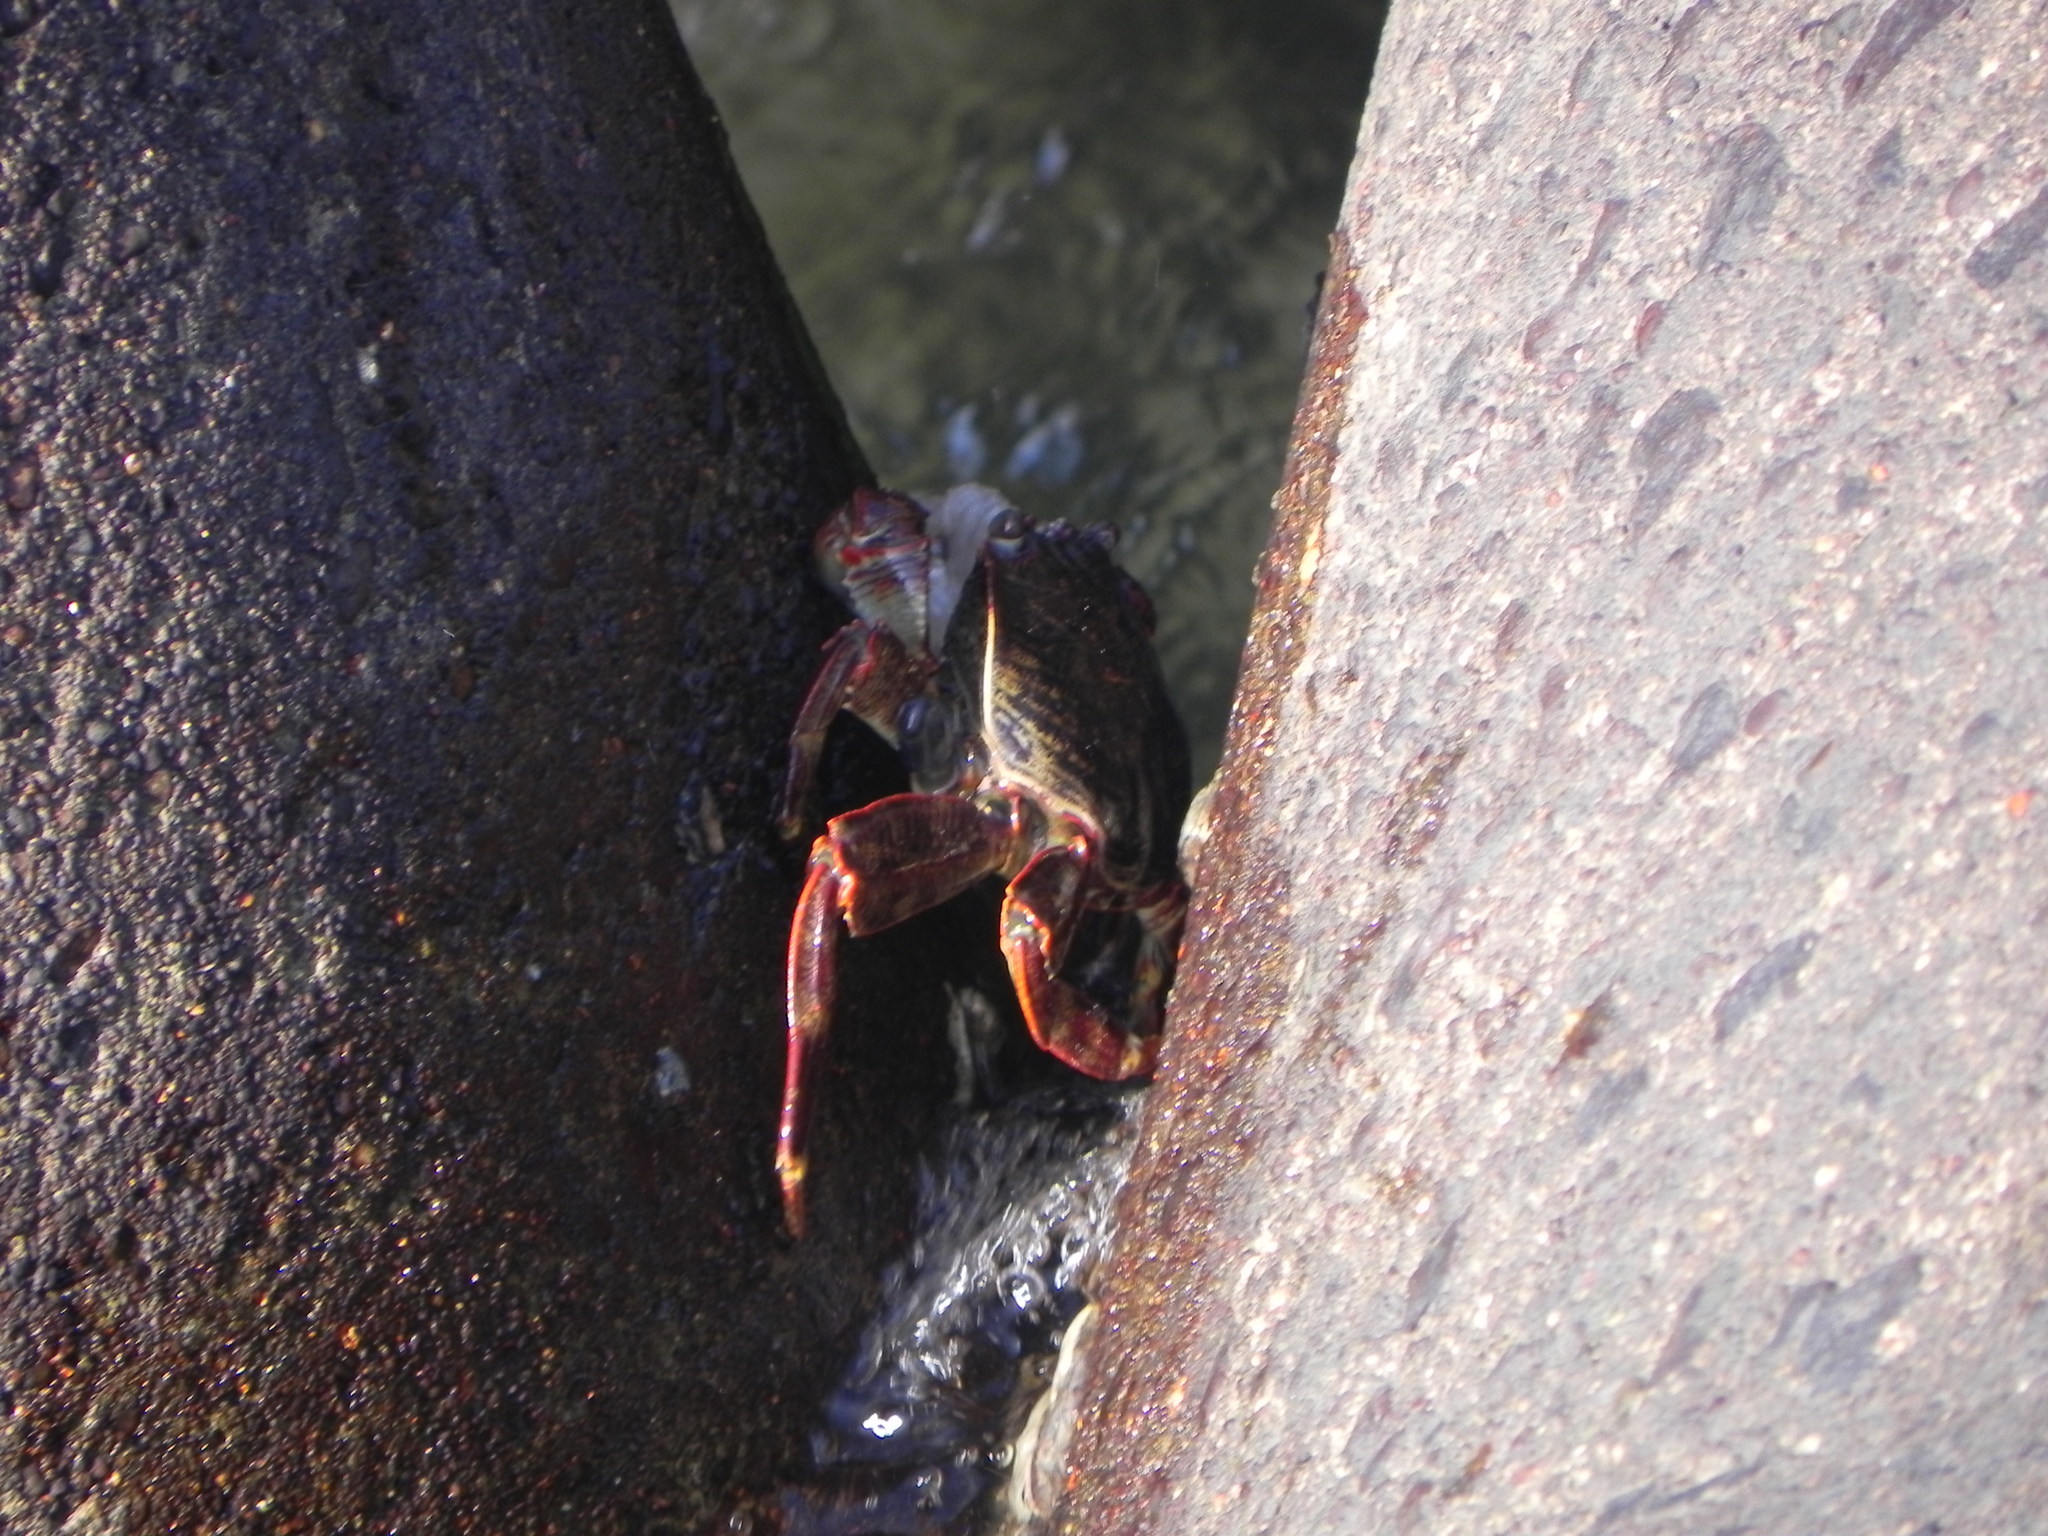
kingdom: Animalia
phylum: Arthropoda
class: Malacostraca
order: Decapoda
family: Grapsidae
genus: Grapsus
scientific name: Grapsus albolineatus
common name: Mottled lightfoot crab
